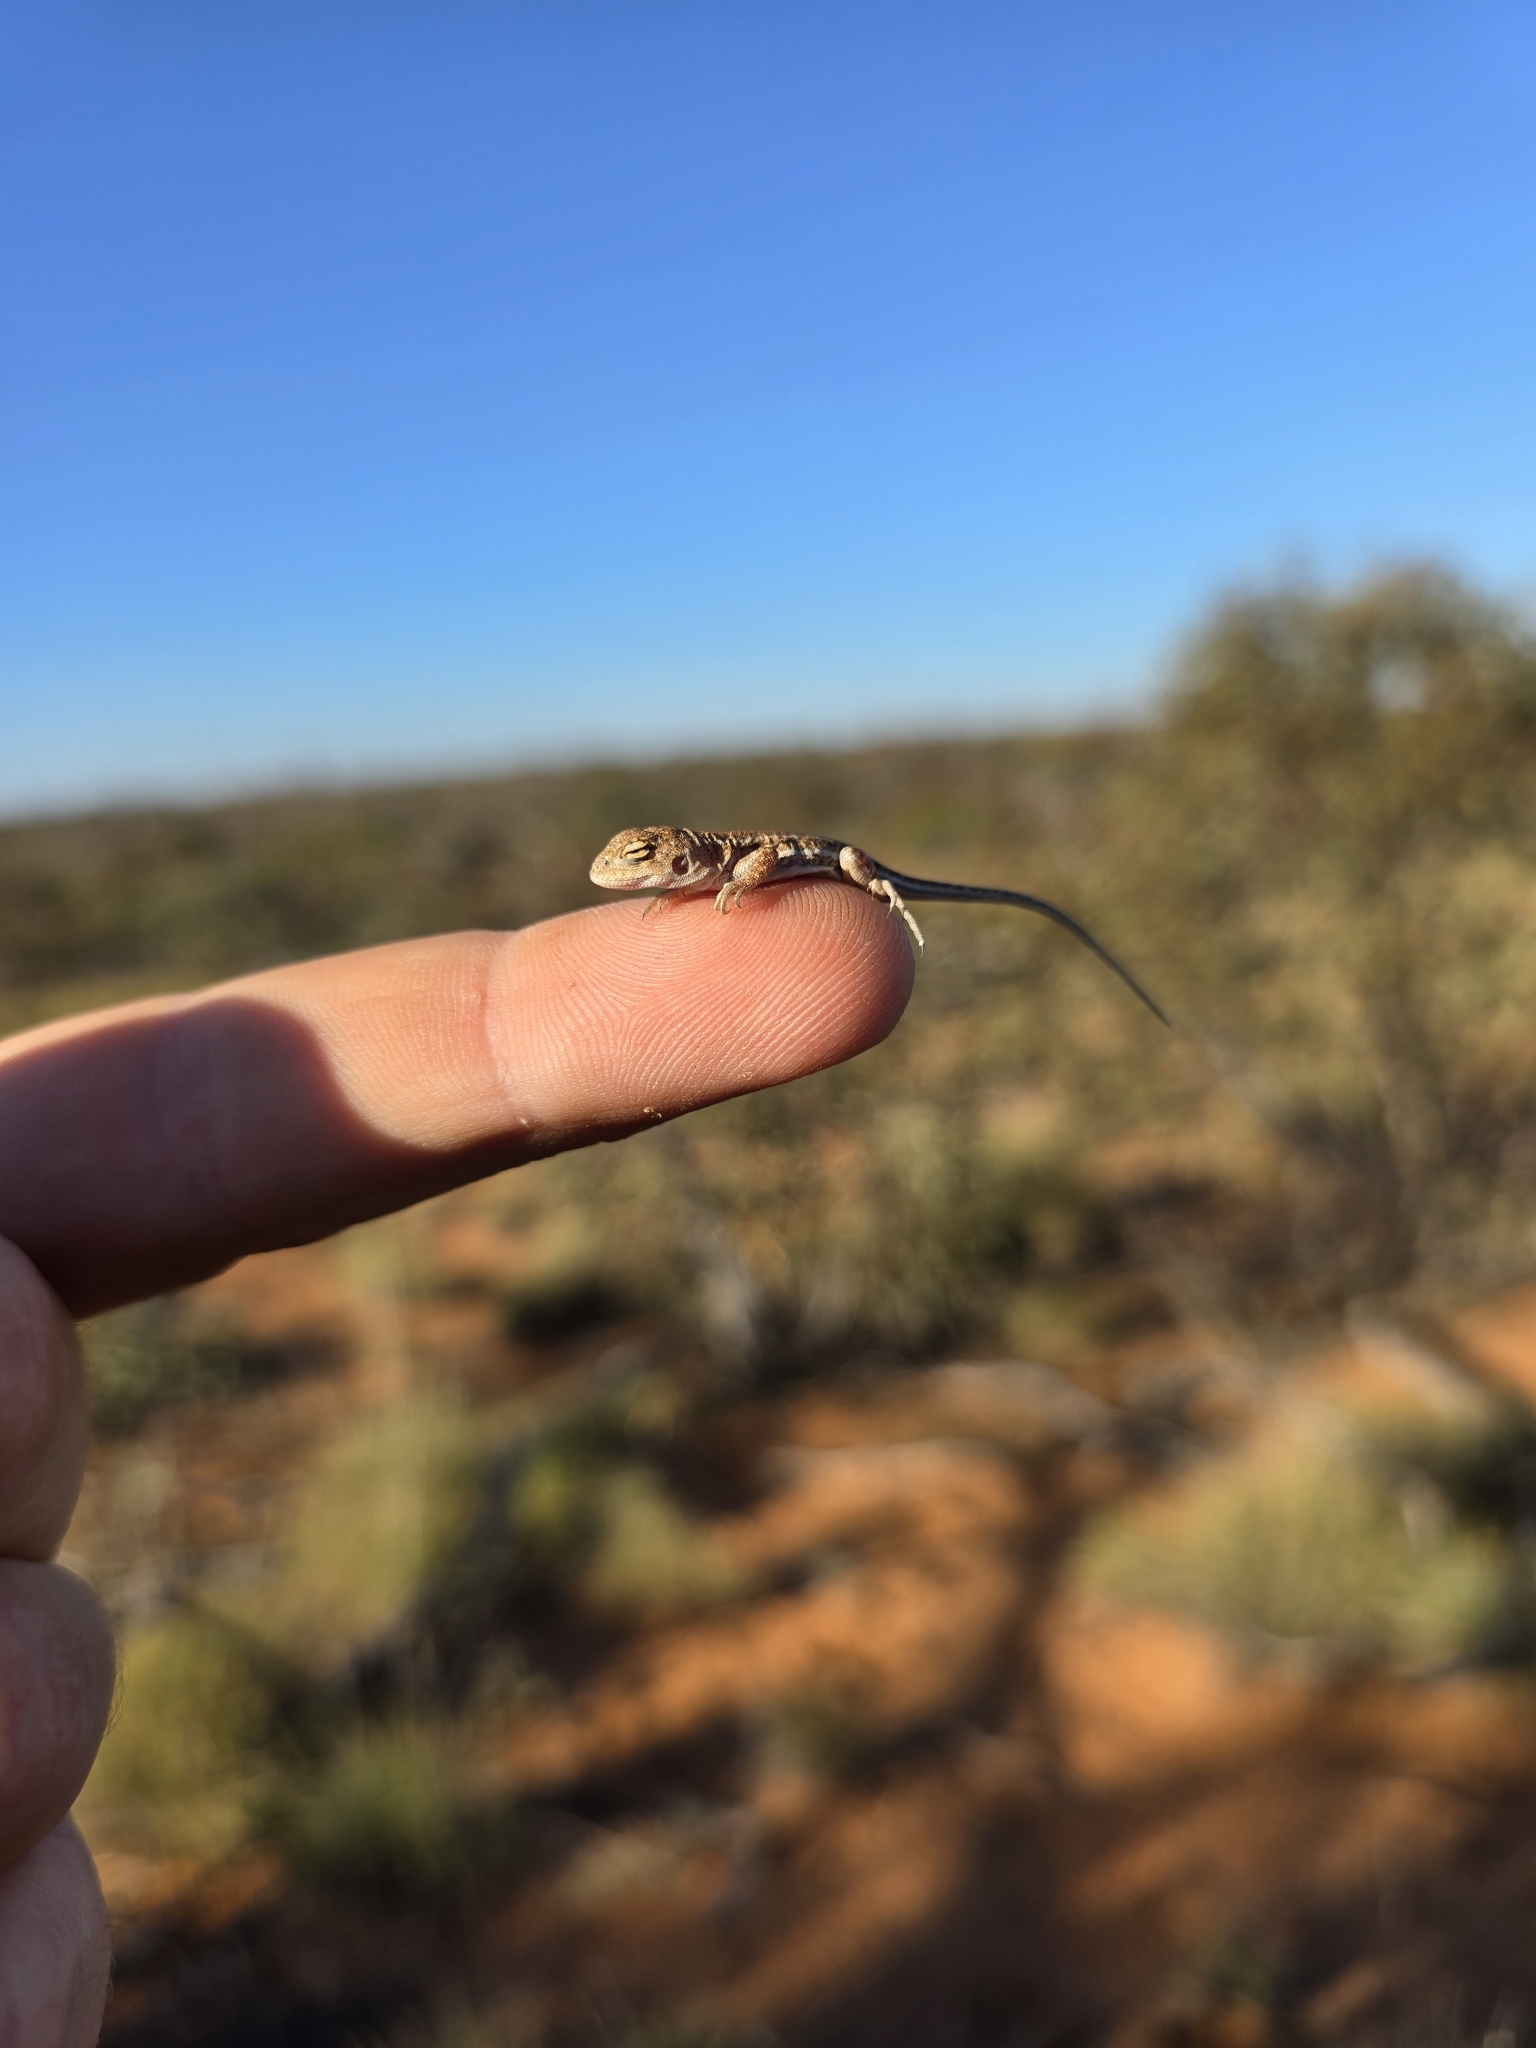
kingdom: Animalia
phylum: Chordata
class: Squamata
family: Agamidae
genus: Ctenophorus
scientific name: Ctenophorus spinodomus
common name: Eastern mallee dragon
